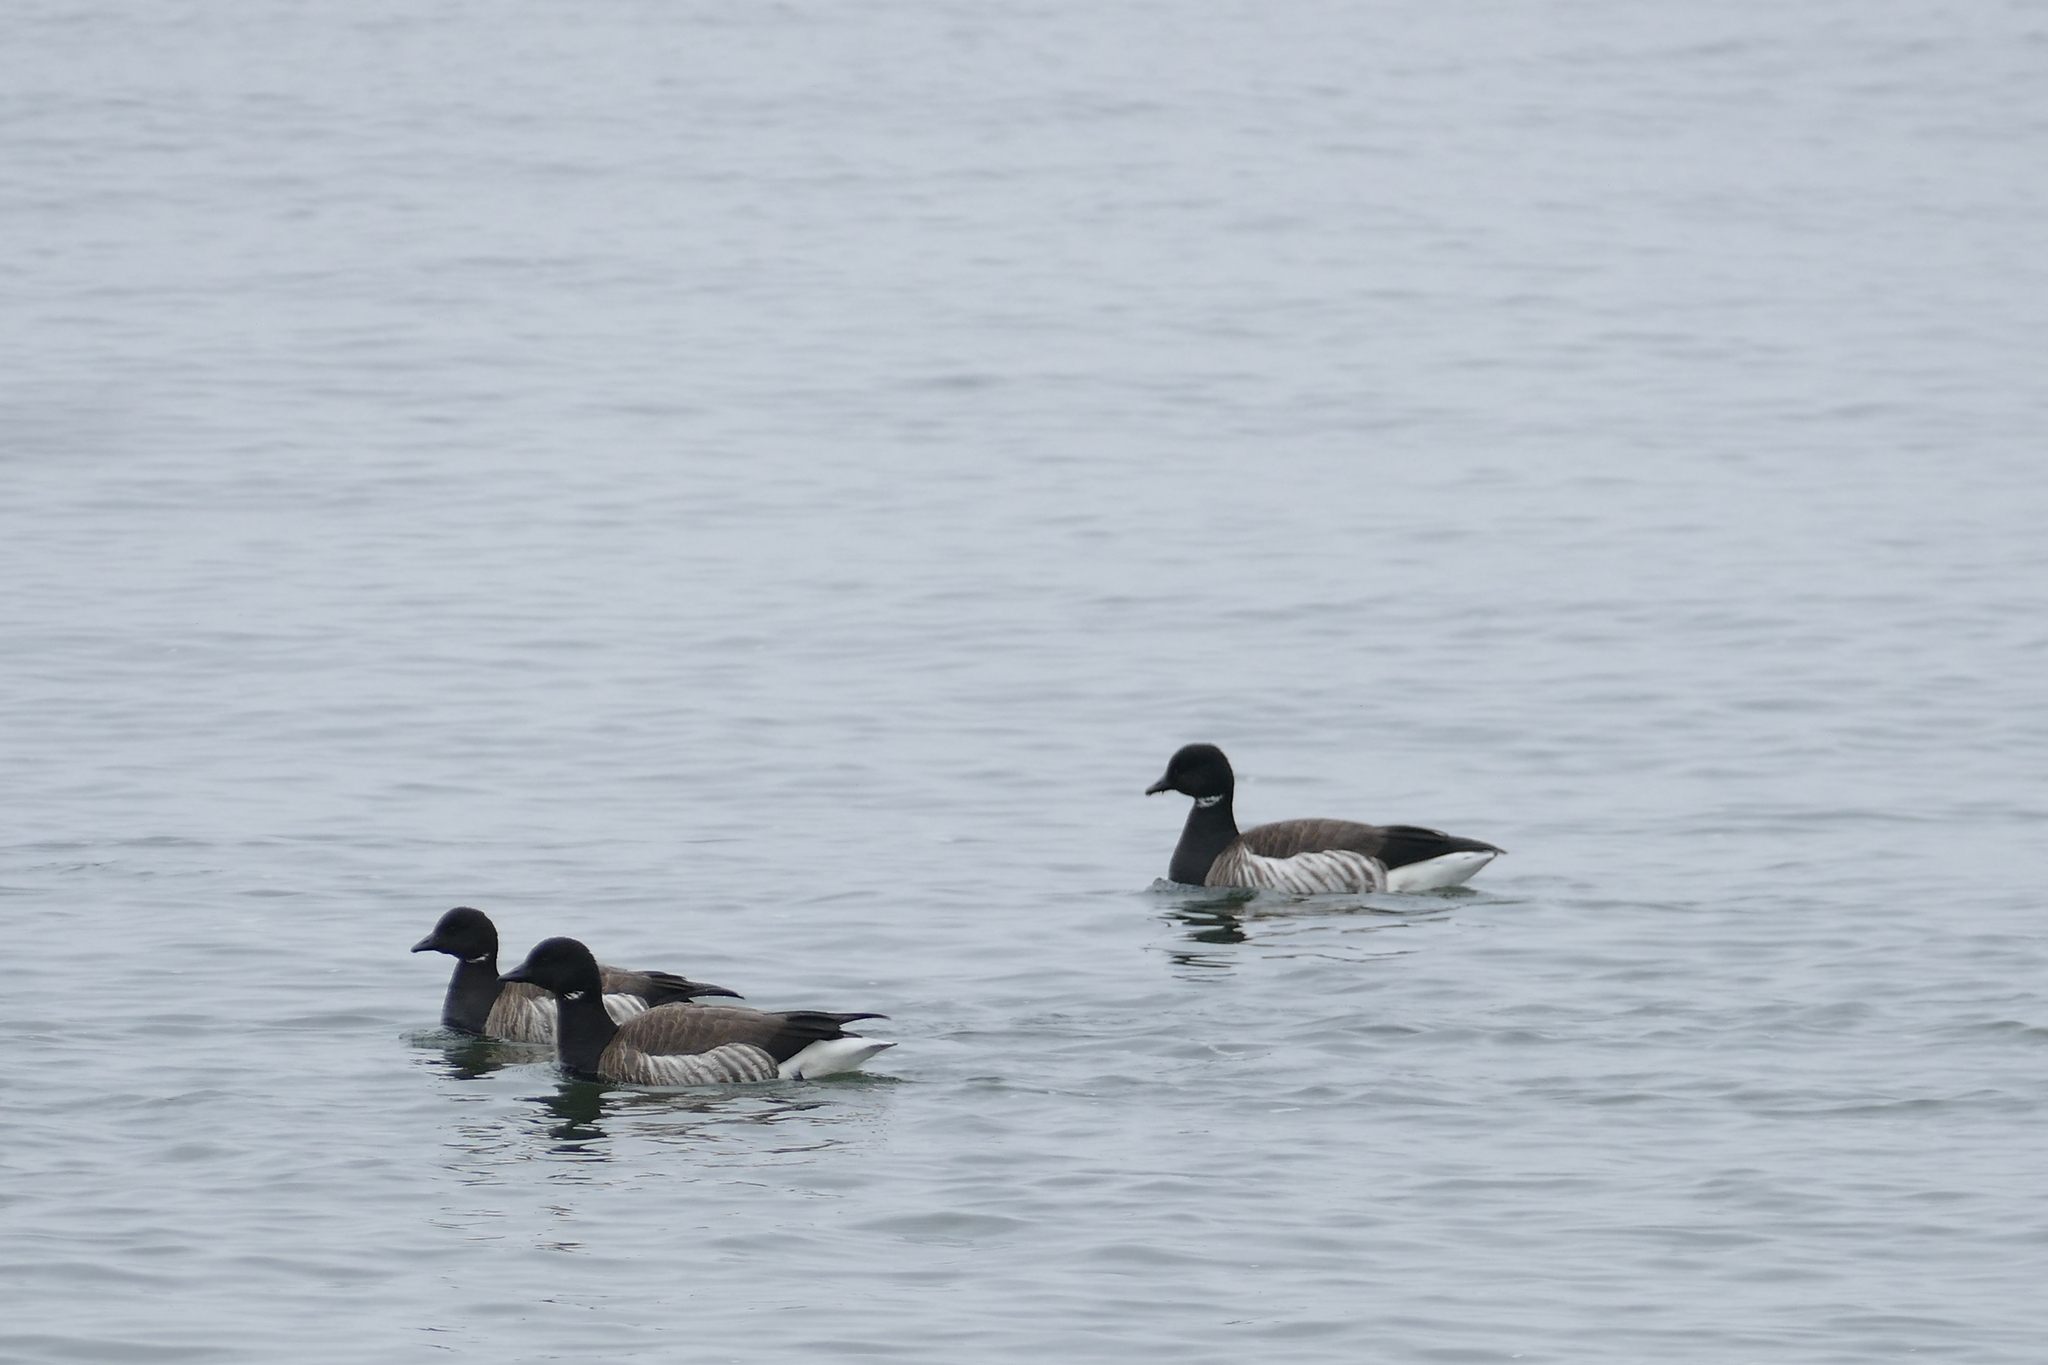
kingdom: Animalia
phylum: Chordata
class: Aves
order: Anseriformes
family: Anatidae
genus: Branta
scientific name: Branta bernicla
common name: Brant goose
